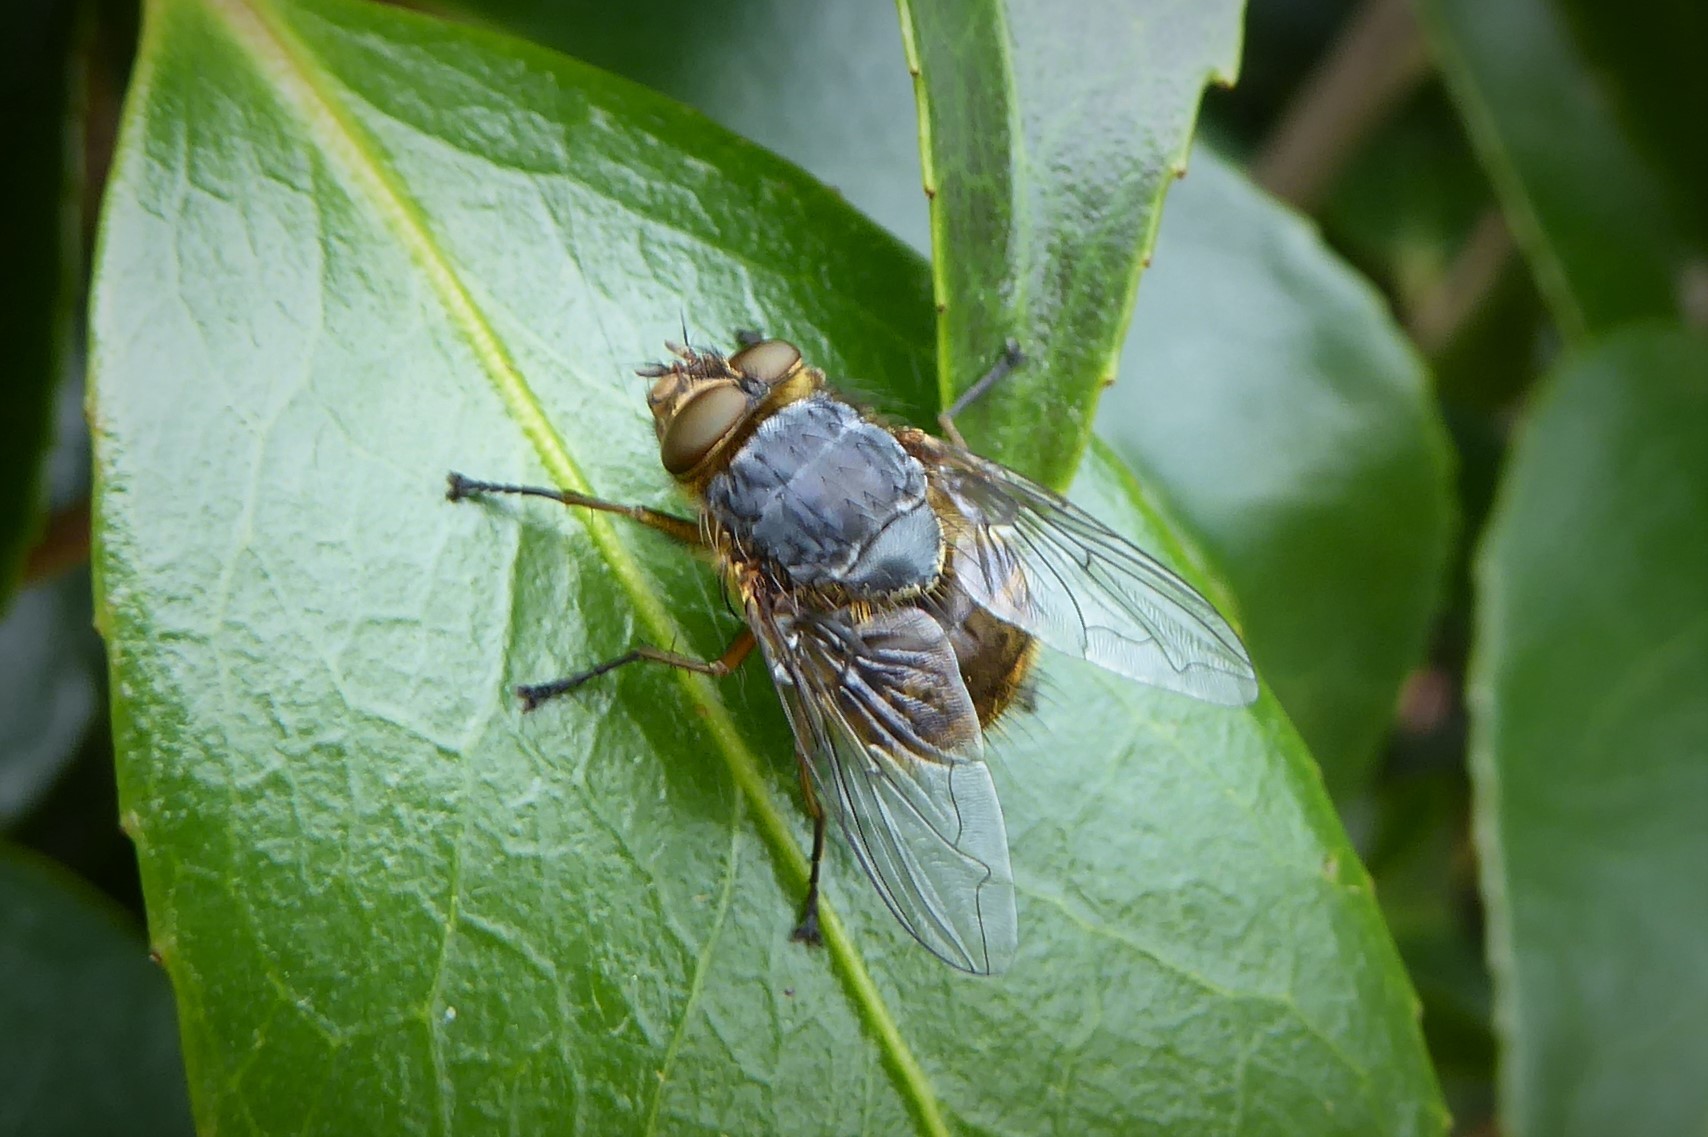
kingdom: Animalia
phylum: Arthropoda
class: Insecta
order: Diptera
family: Calliphoridae
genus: Calliphora
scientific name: Calliphora hilli
